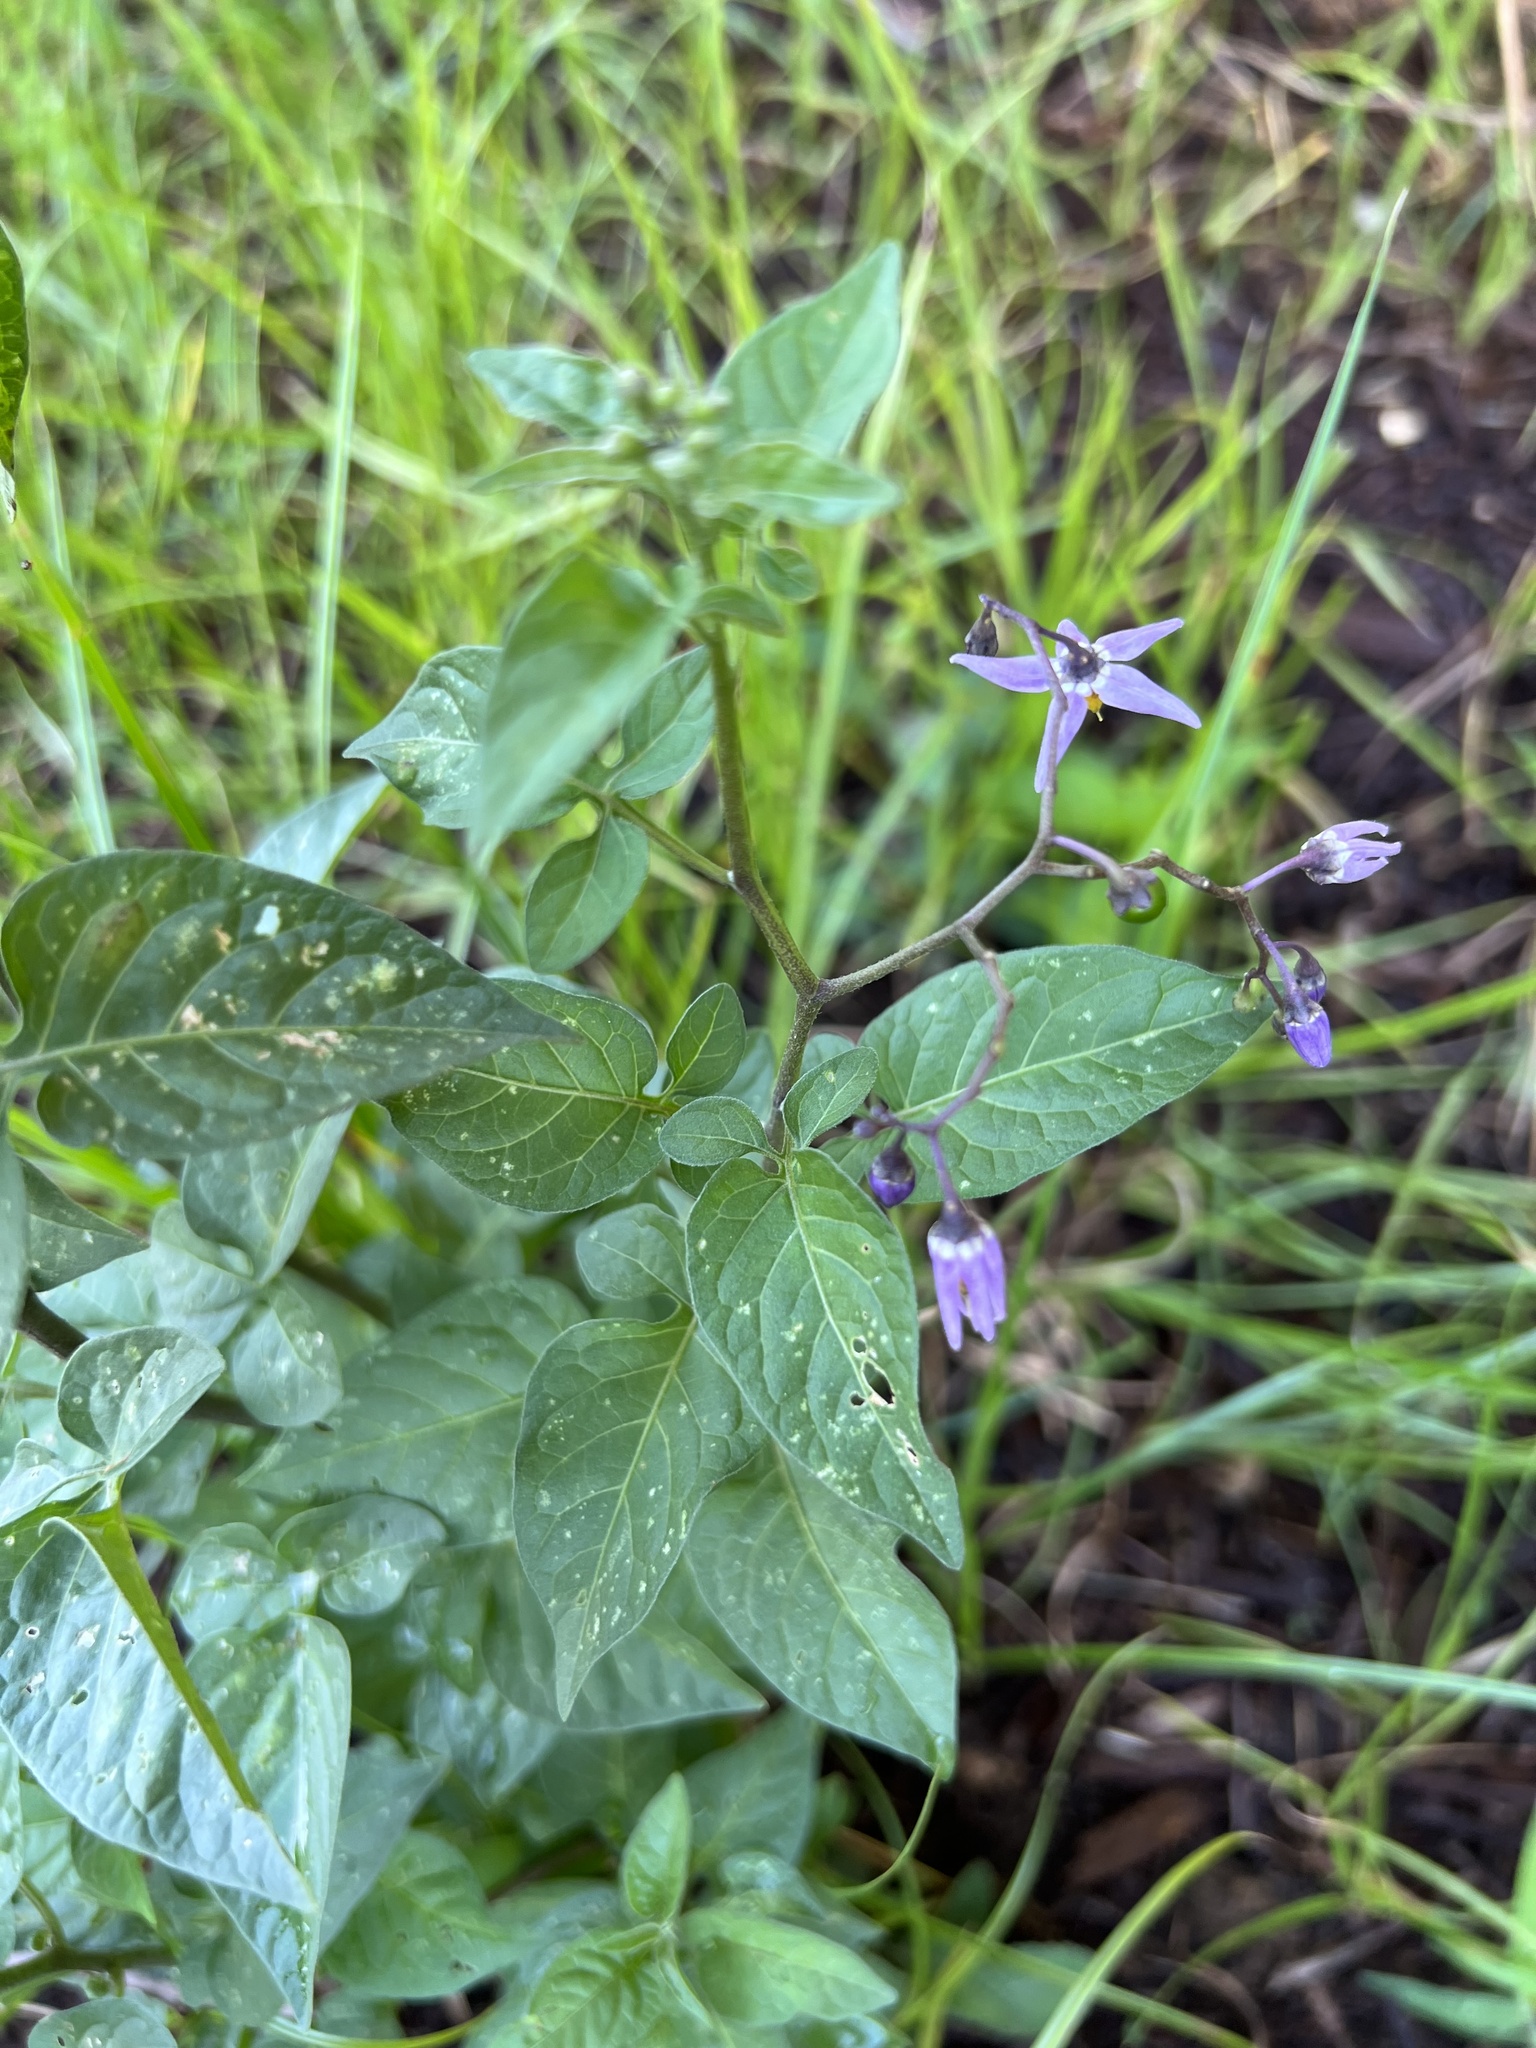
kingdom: Plantae
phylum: Tracheophyta
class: Magnoliopsida
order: Solanales
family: Solanaceae
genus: Solanum
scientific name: Solanum dulcamara
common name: Climbing nightshade
